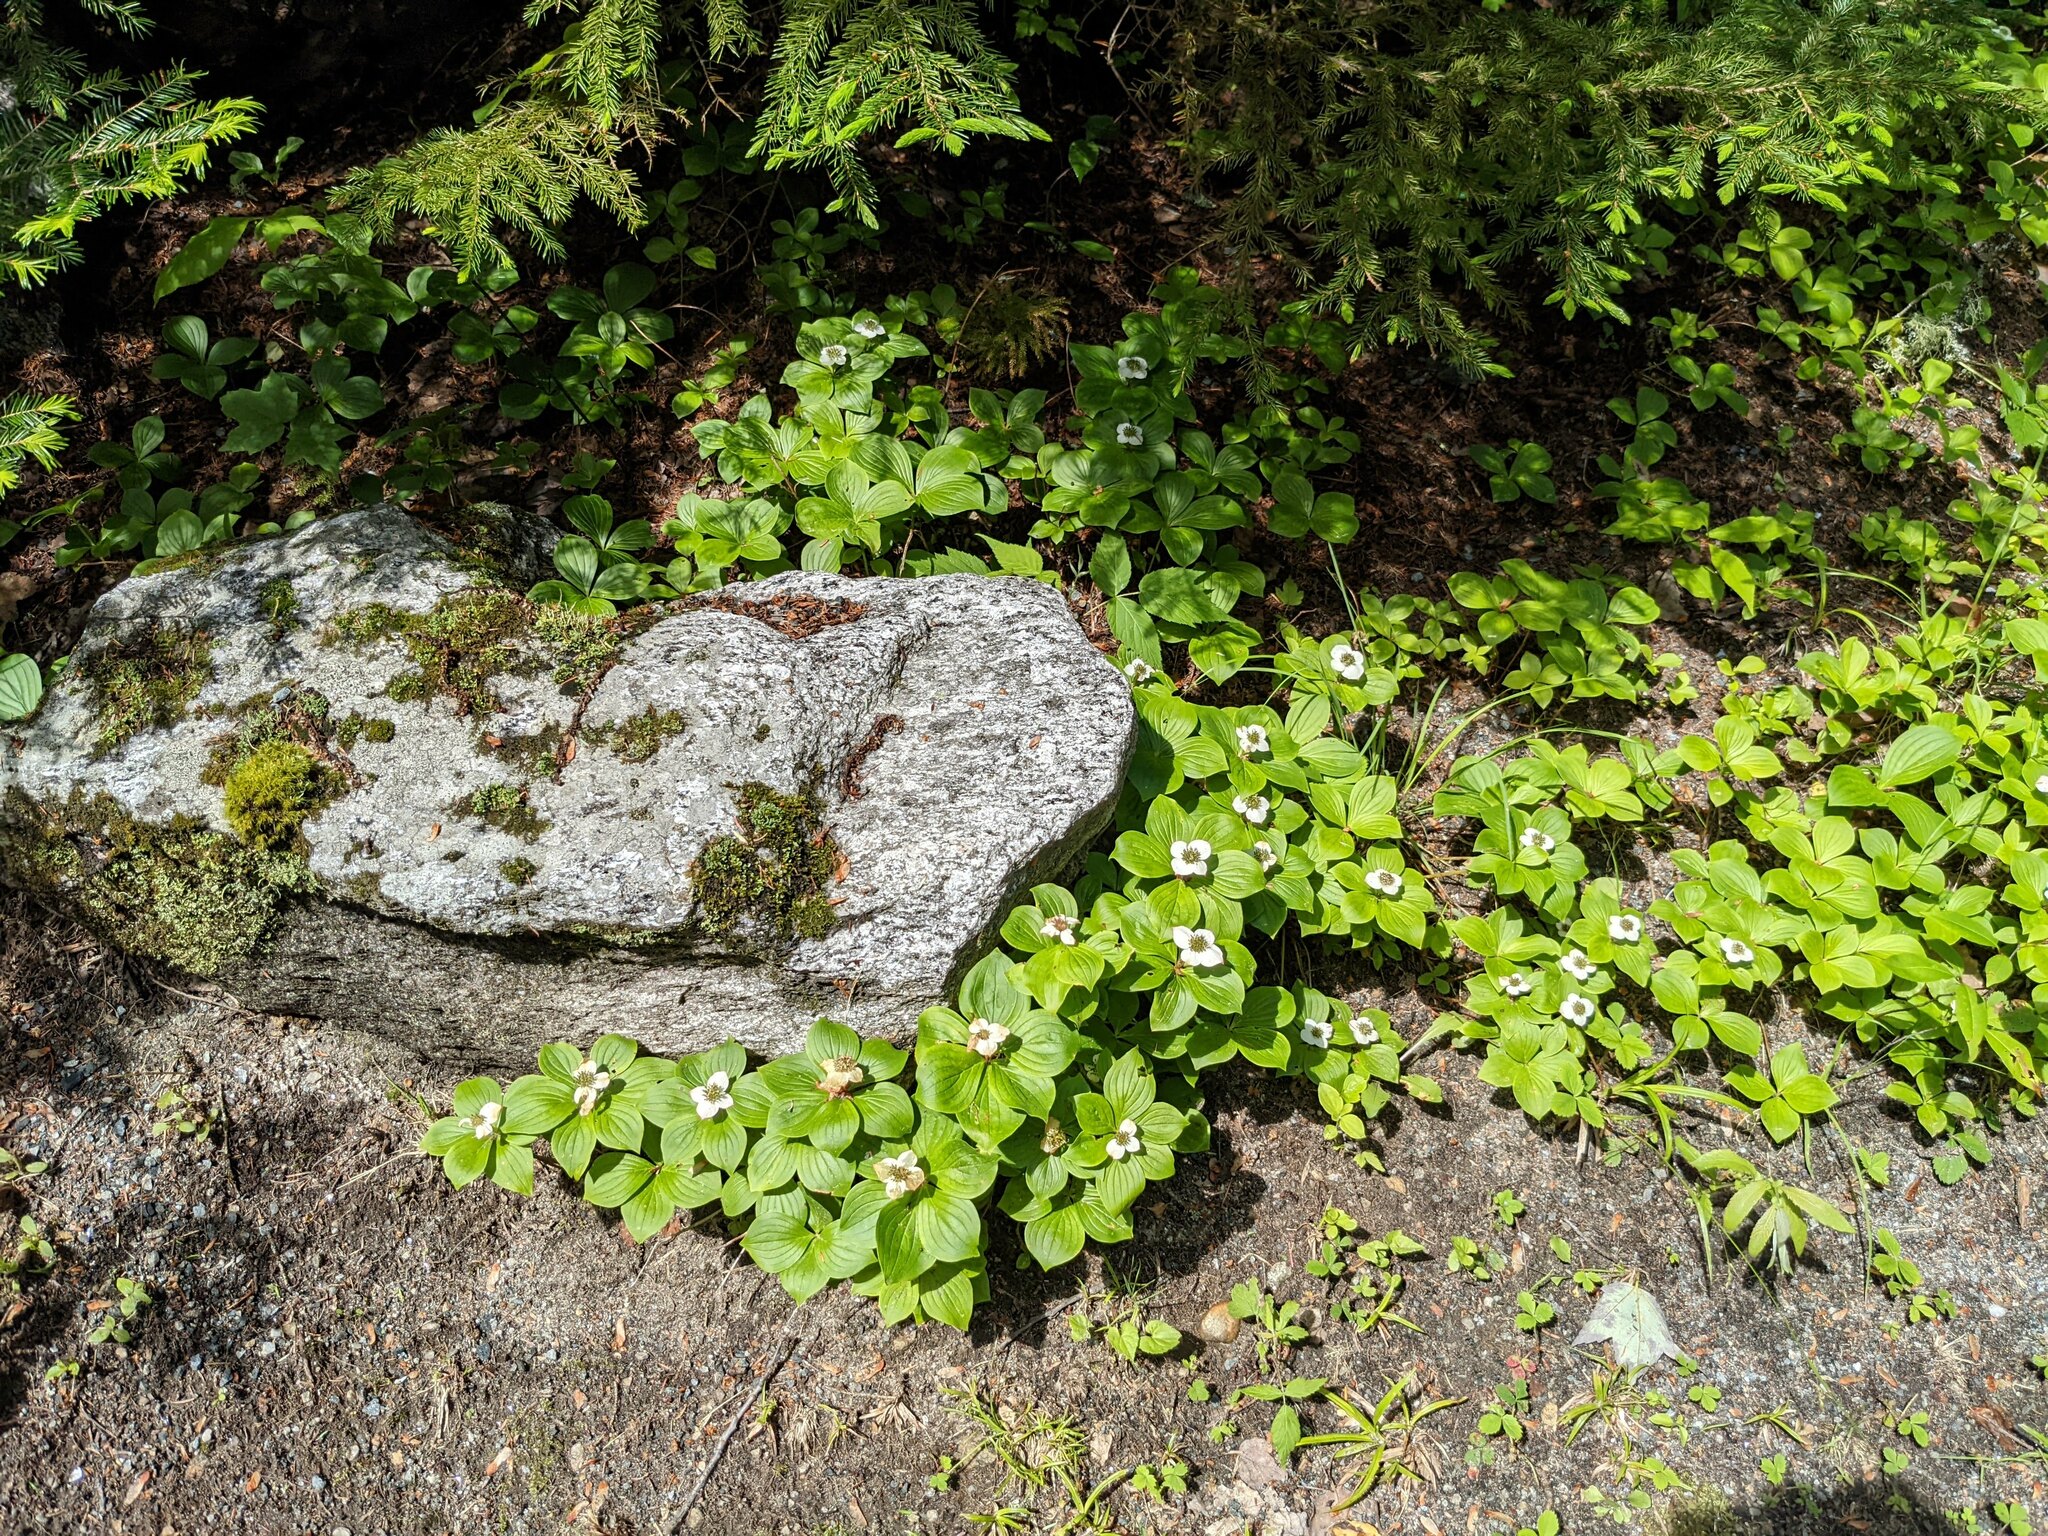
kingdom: Plantae
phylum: Tracheophyta
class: Magnoliopsida
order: Cornales
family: Cornaceae
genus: Cornus
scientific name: Cornus canadensis
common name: Creeping dogwood
